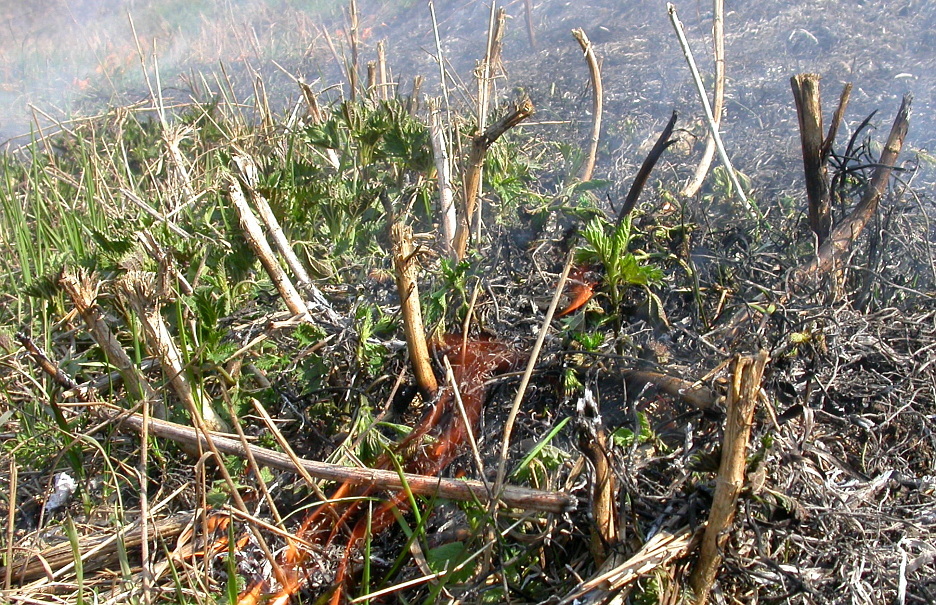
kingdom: Plantae
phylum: Tracheophyta
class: Magnoliopsida
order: Rosales
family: Urticaceae
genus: Urtica
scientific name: Urtica dioica
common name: Common nettle
